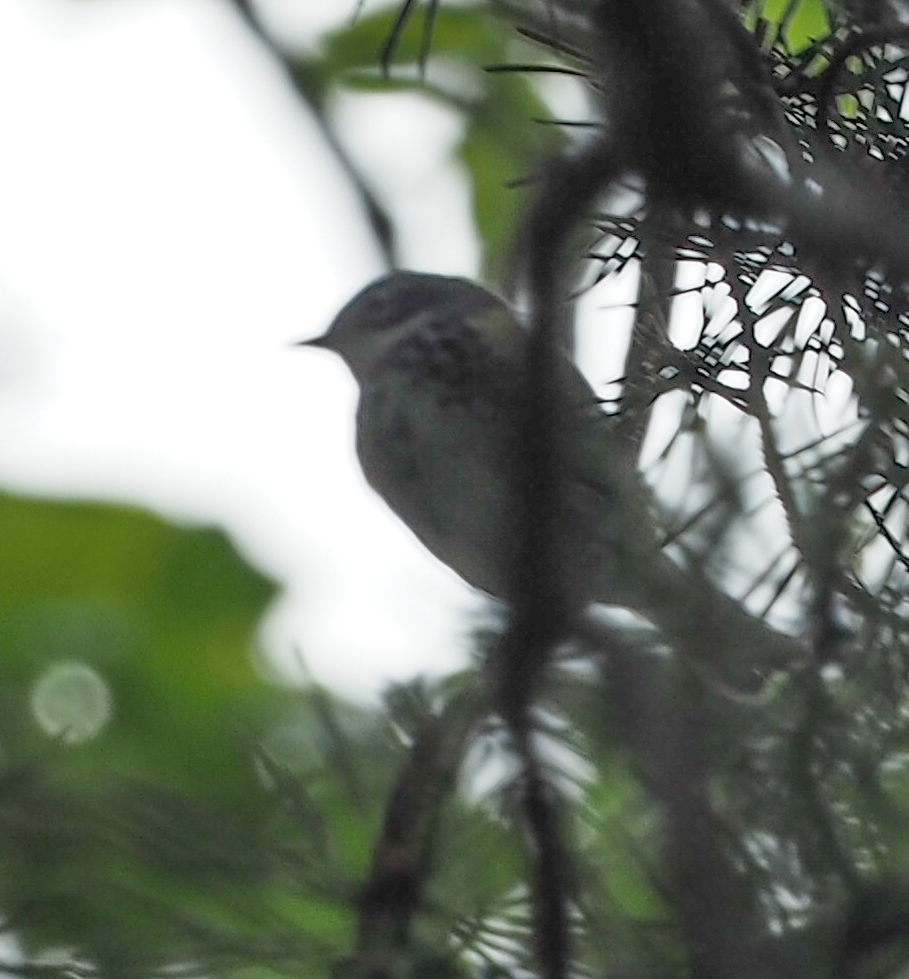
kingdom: Animalia
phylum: Chordata
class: Aves
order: Passeriformes
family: Parulidae
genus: Setophaga
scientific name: Setophaga coronata
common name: Myrtle warbler
